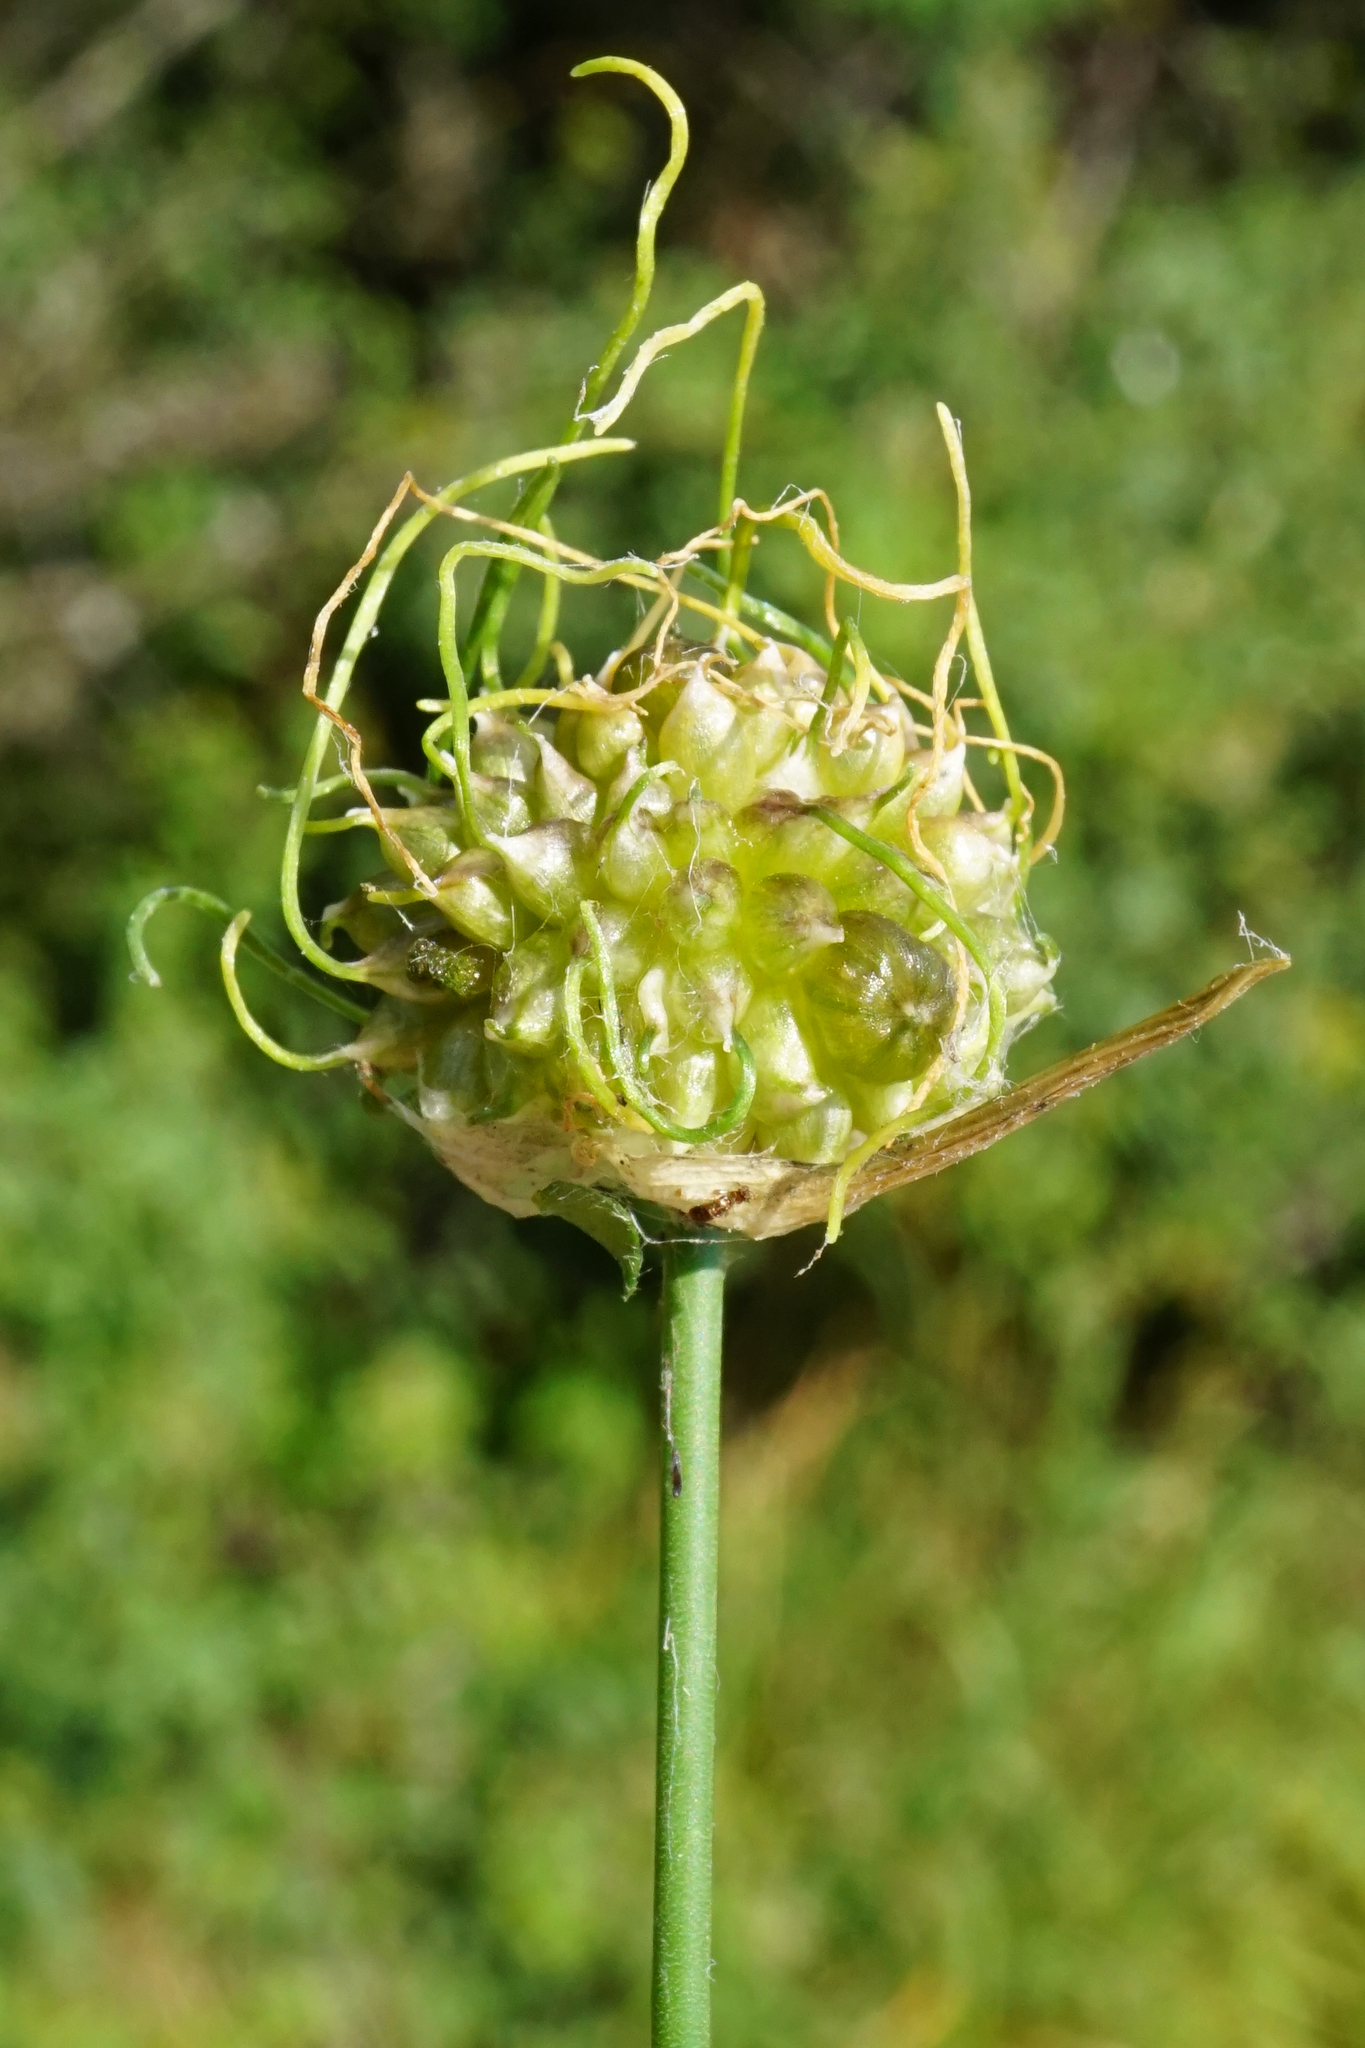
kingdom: Plantae
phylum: Tracheophyta
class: Liliopsida
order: Asparagales
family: Amaryllidaceae
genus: Allium
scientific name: Allium vineale
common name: Crow garlic
